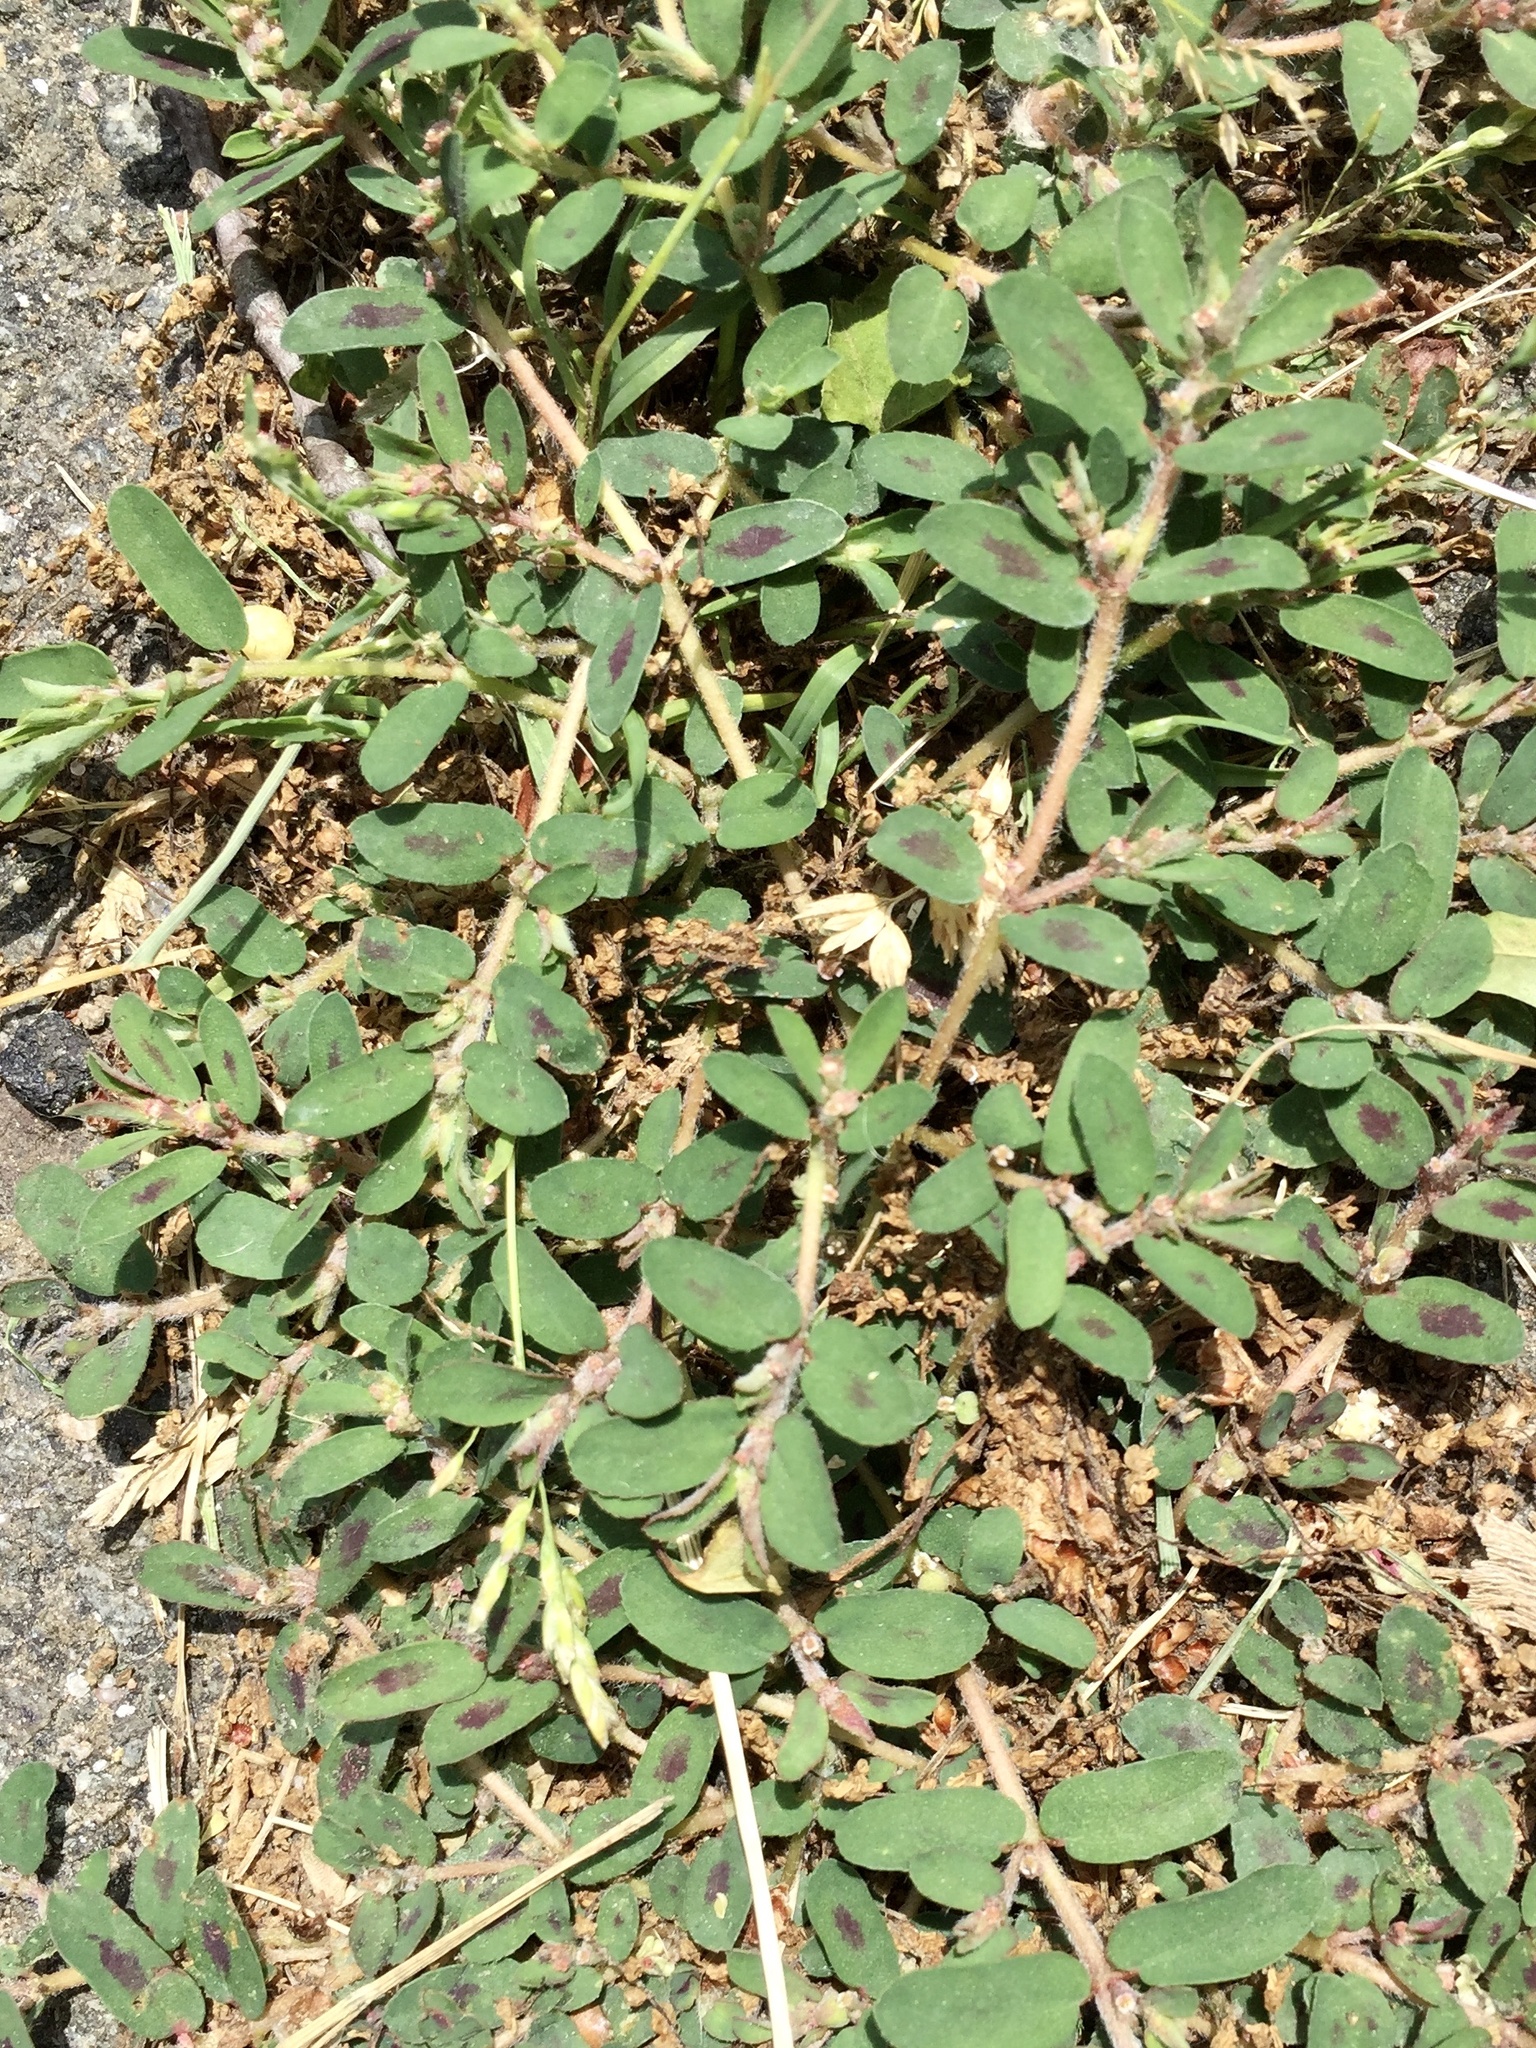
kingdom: Plantae
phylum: Tracheophyta
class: Magnoliopsida
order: Malpighiales
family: Euphorbiaceae
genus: Euphorbia
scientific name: Euphorbia maculata
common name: Spotted spurge
